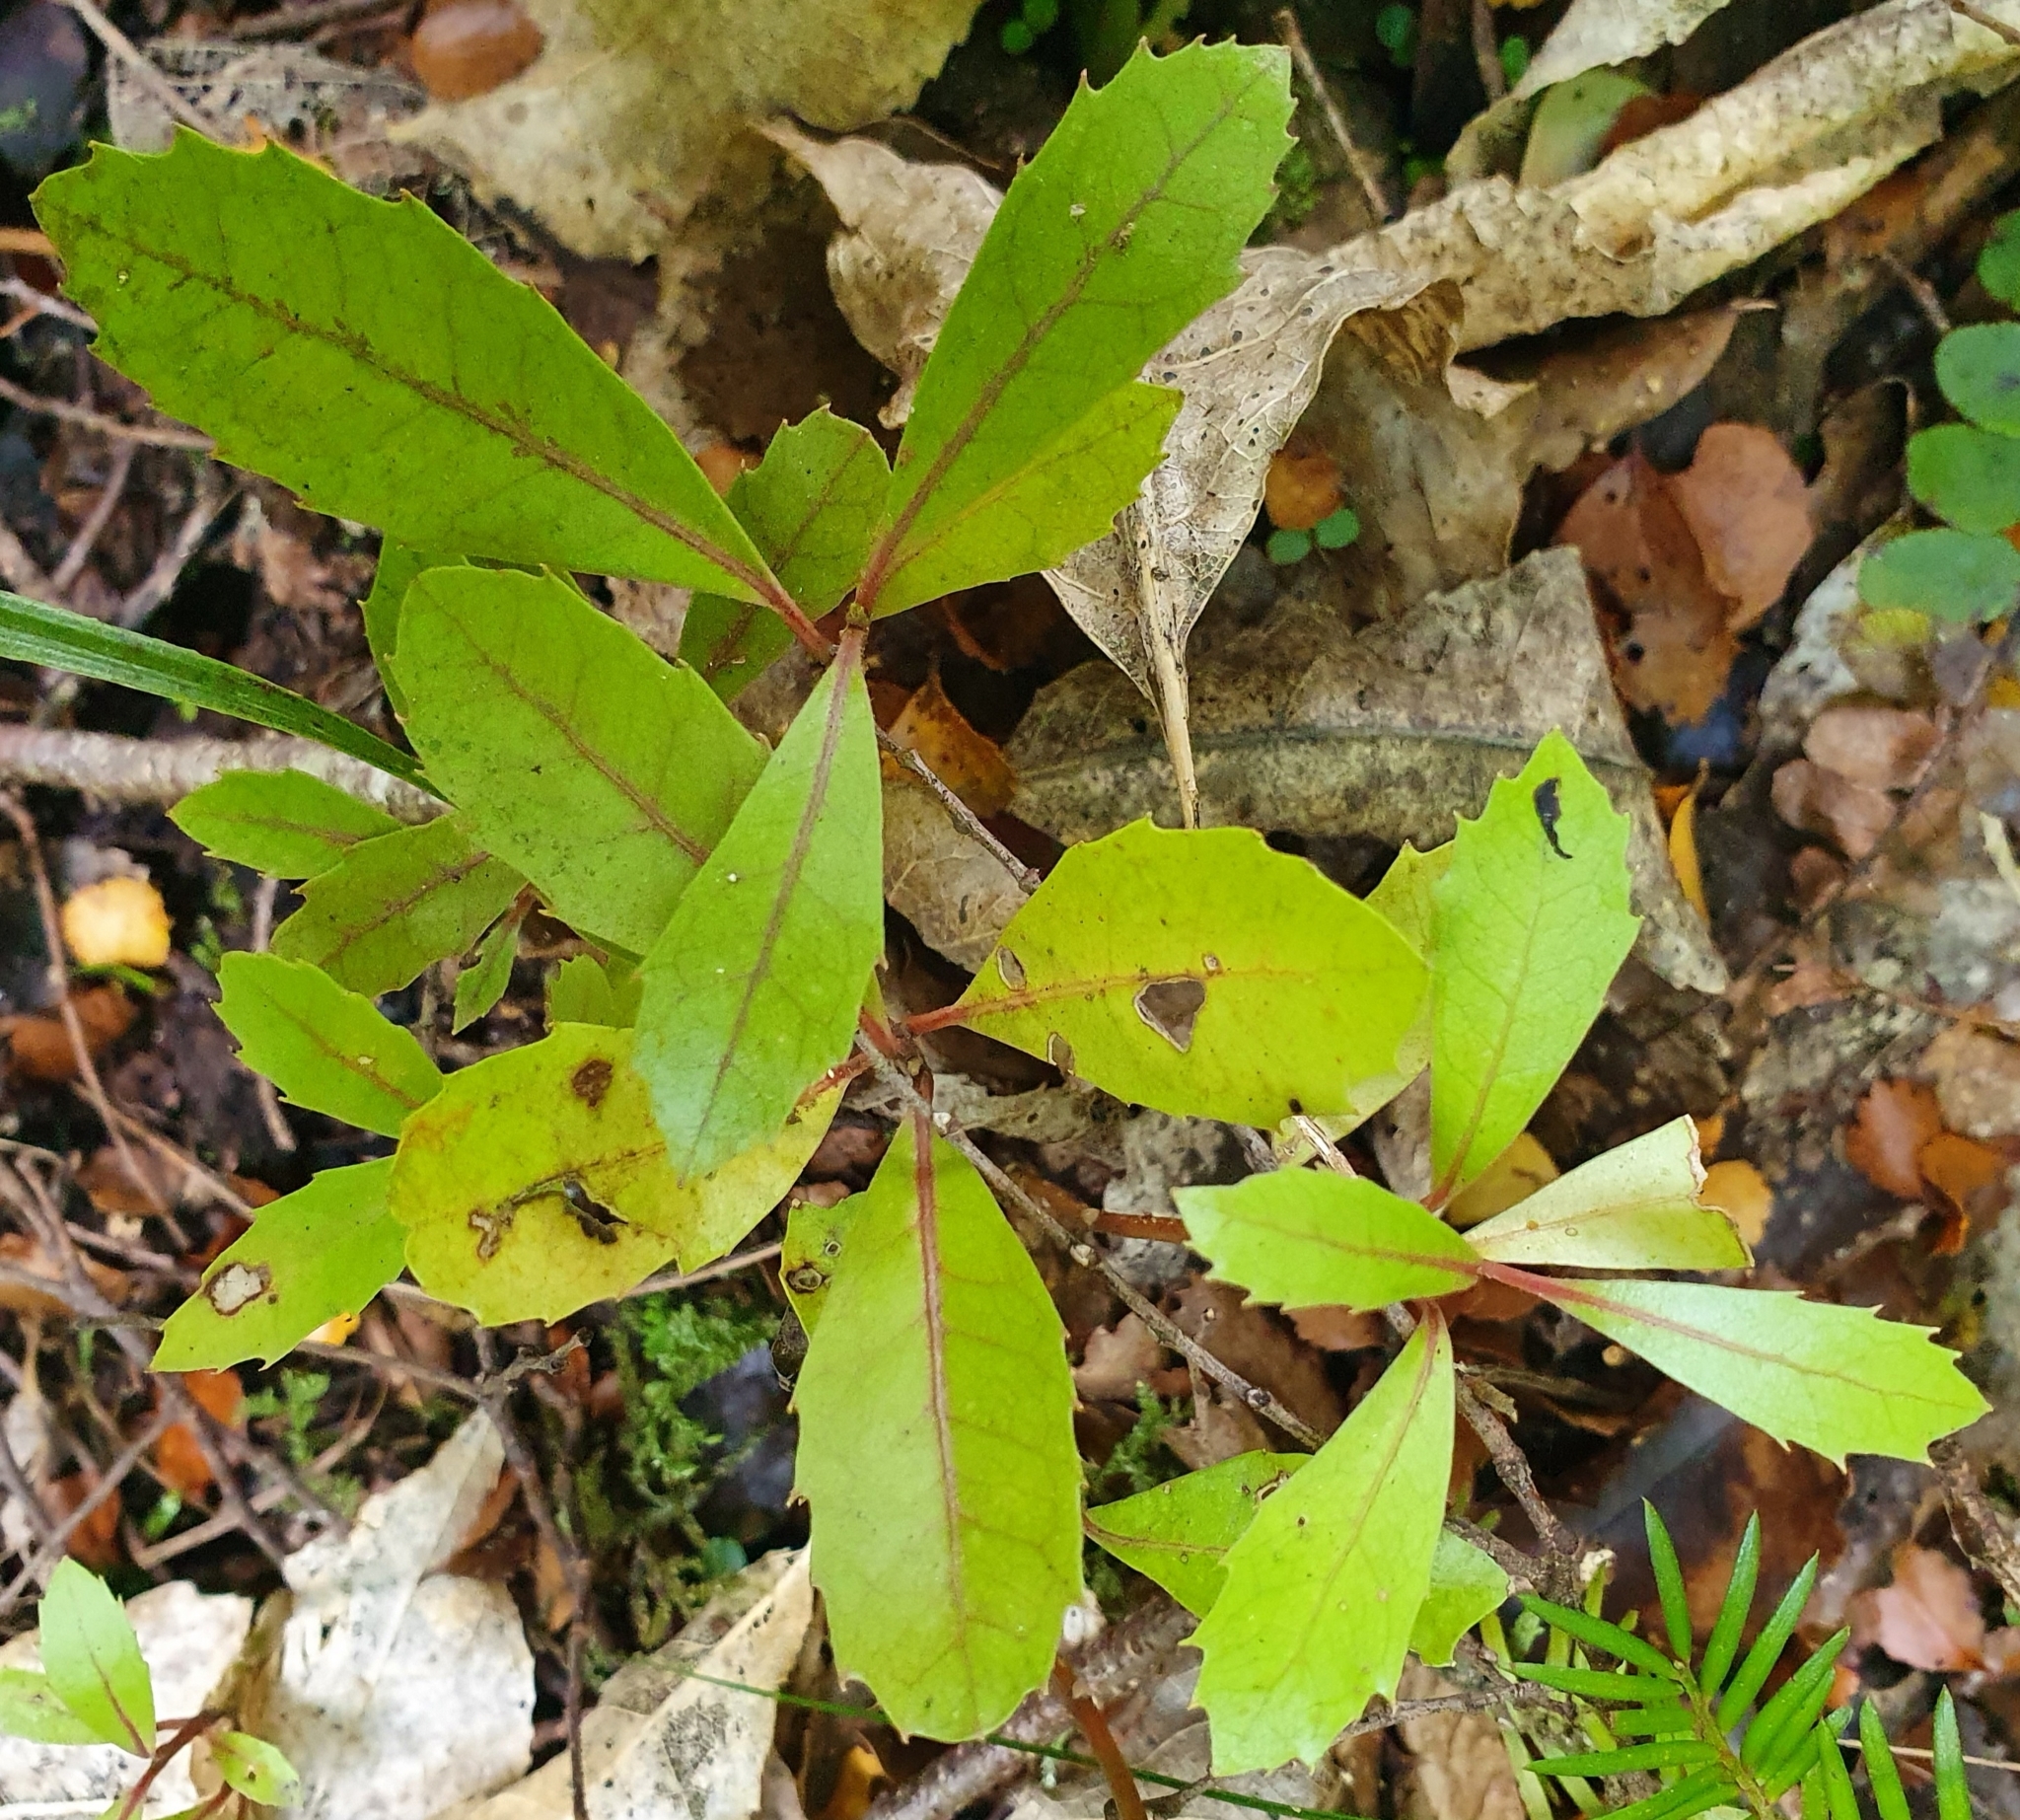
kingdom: Plantae
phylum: Tracheophyta
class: Magnoliopsida
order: Laurales
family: Monimiaceae
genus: Hedycarya
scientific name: Hedycarya arborea
